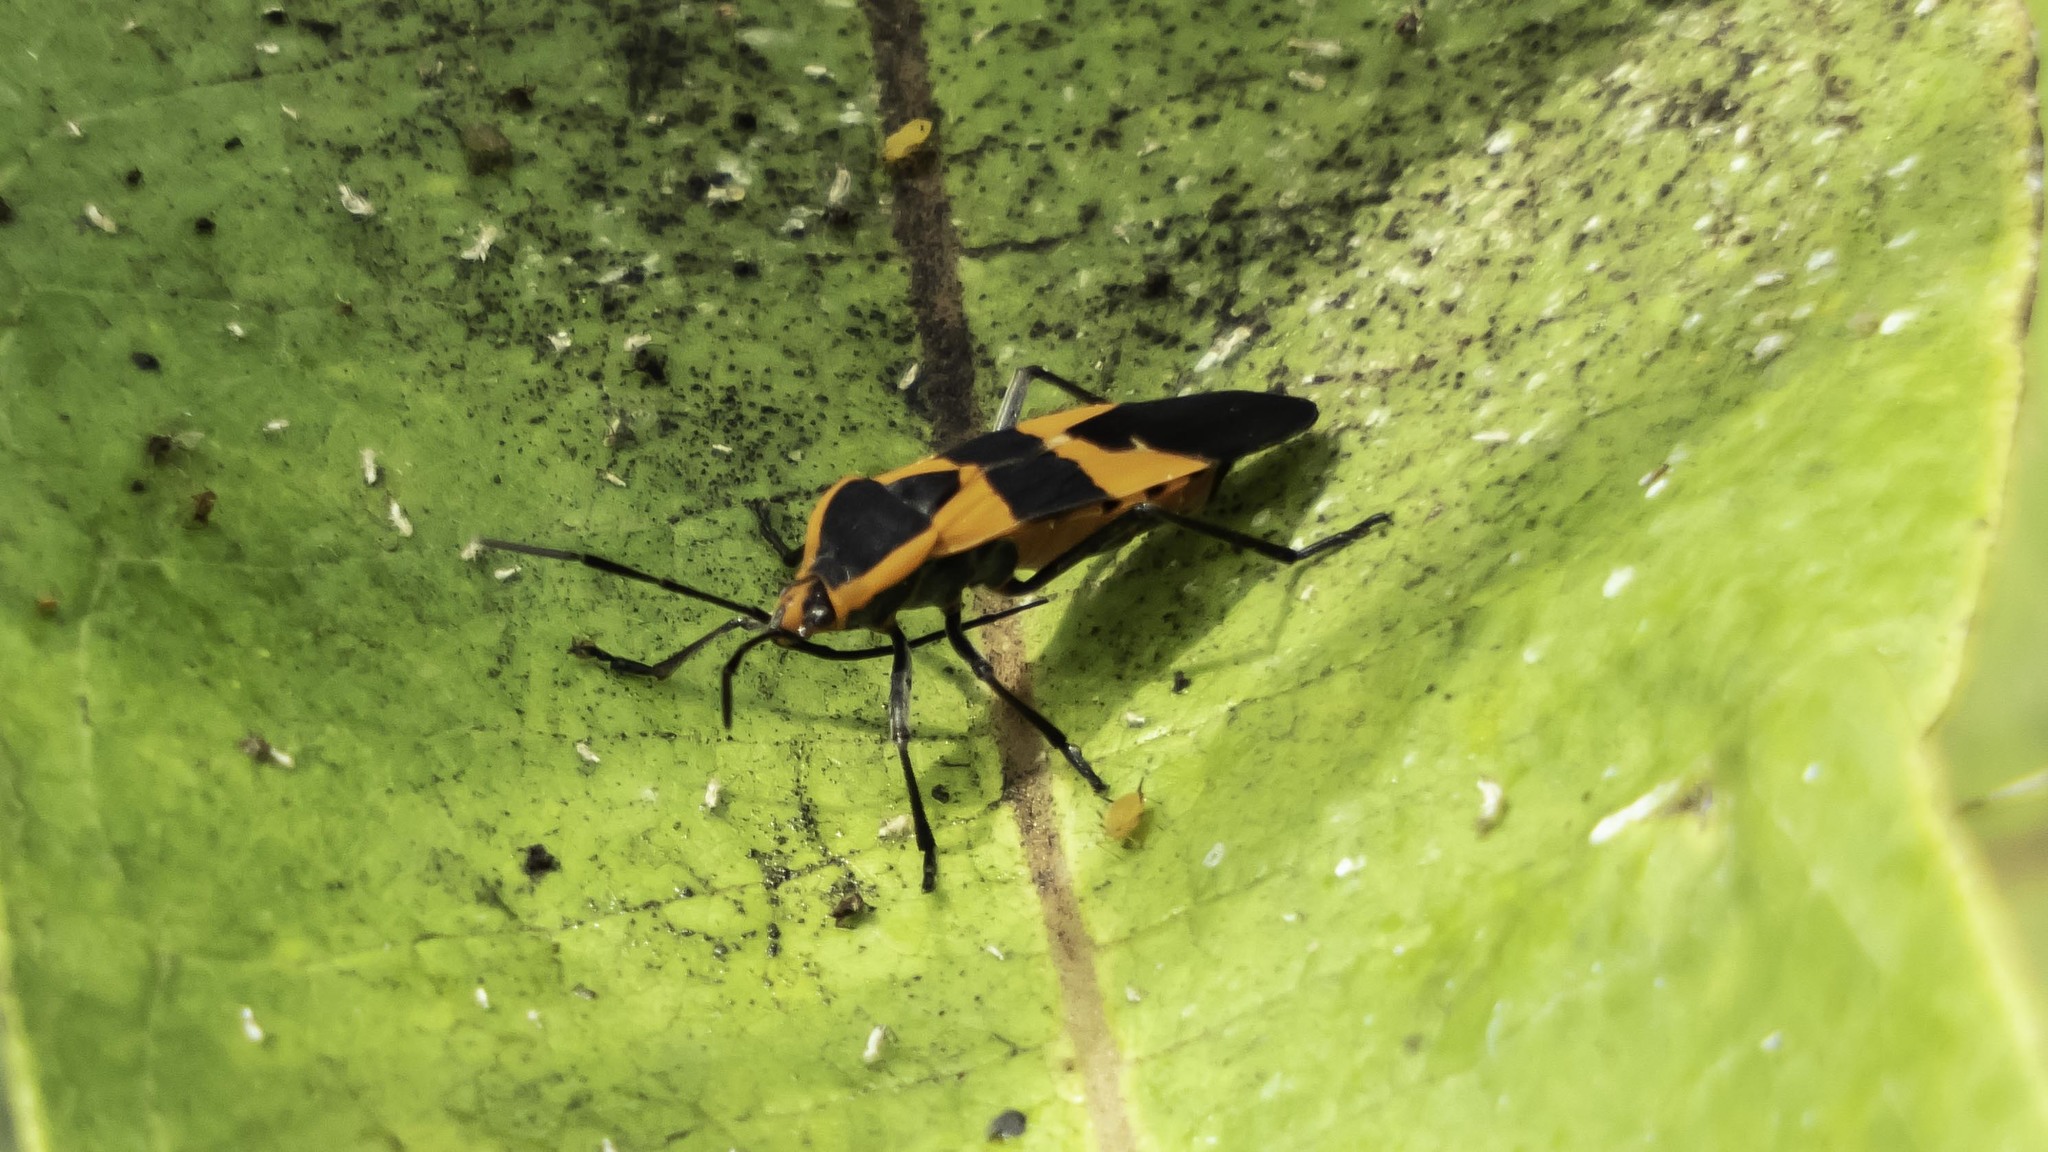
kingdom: Animalia
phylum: Arthropoda
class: Insecta
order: Hemiptera
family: Lygaeidae
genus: Oncopeltus
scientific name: Oncopeltus fasciatus
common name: Large milkweed bug
